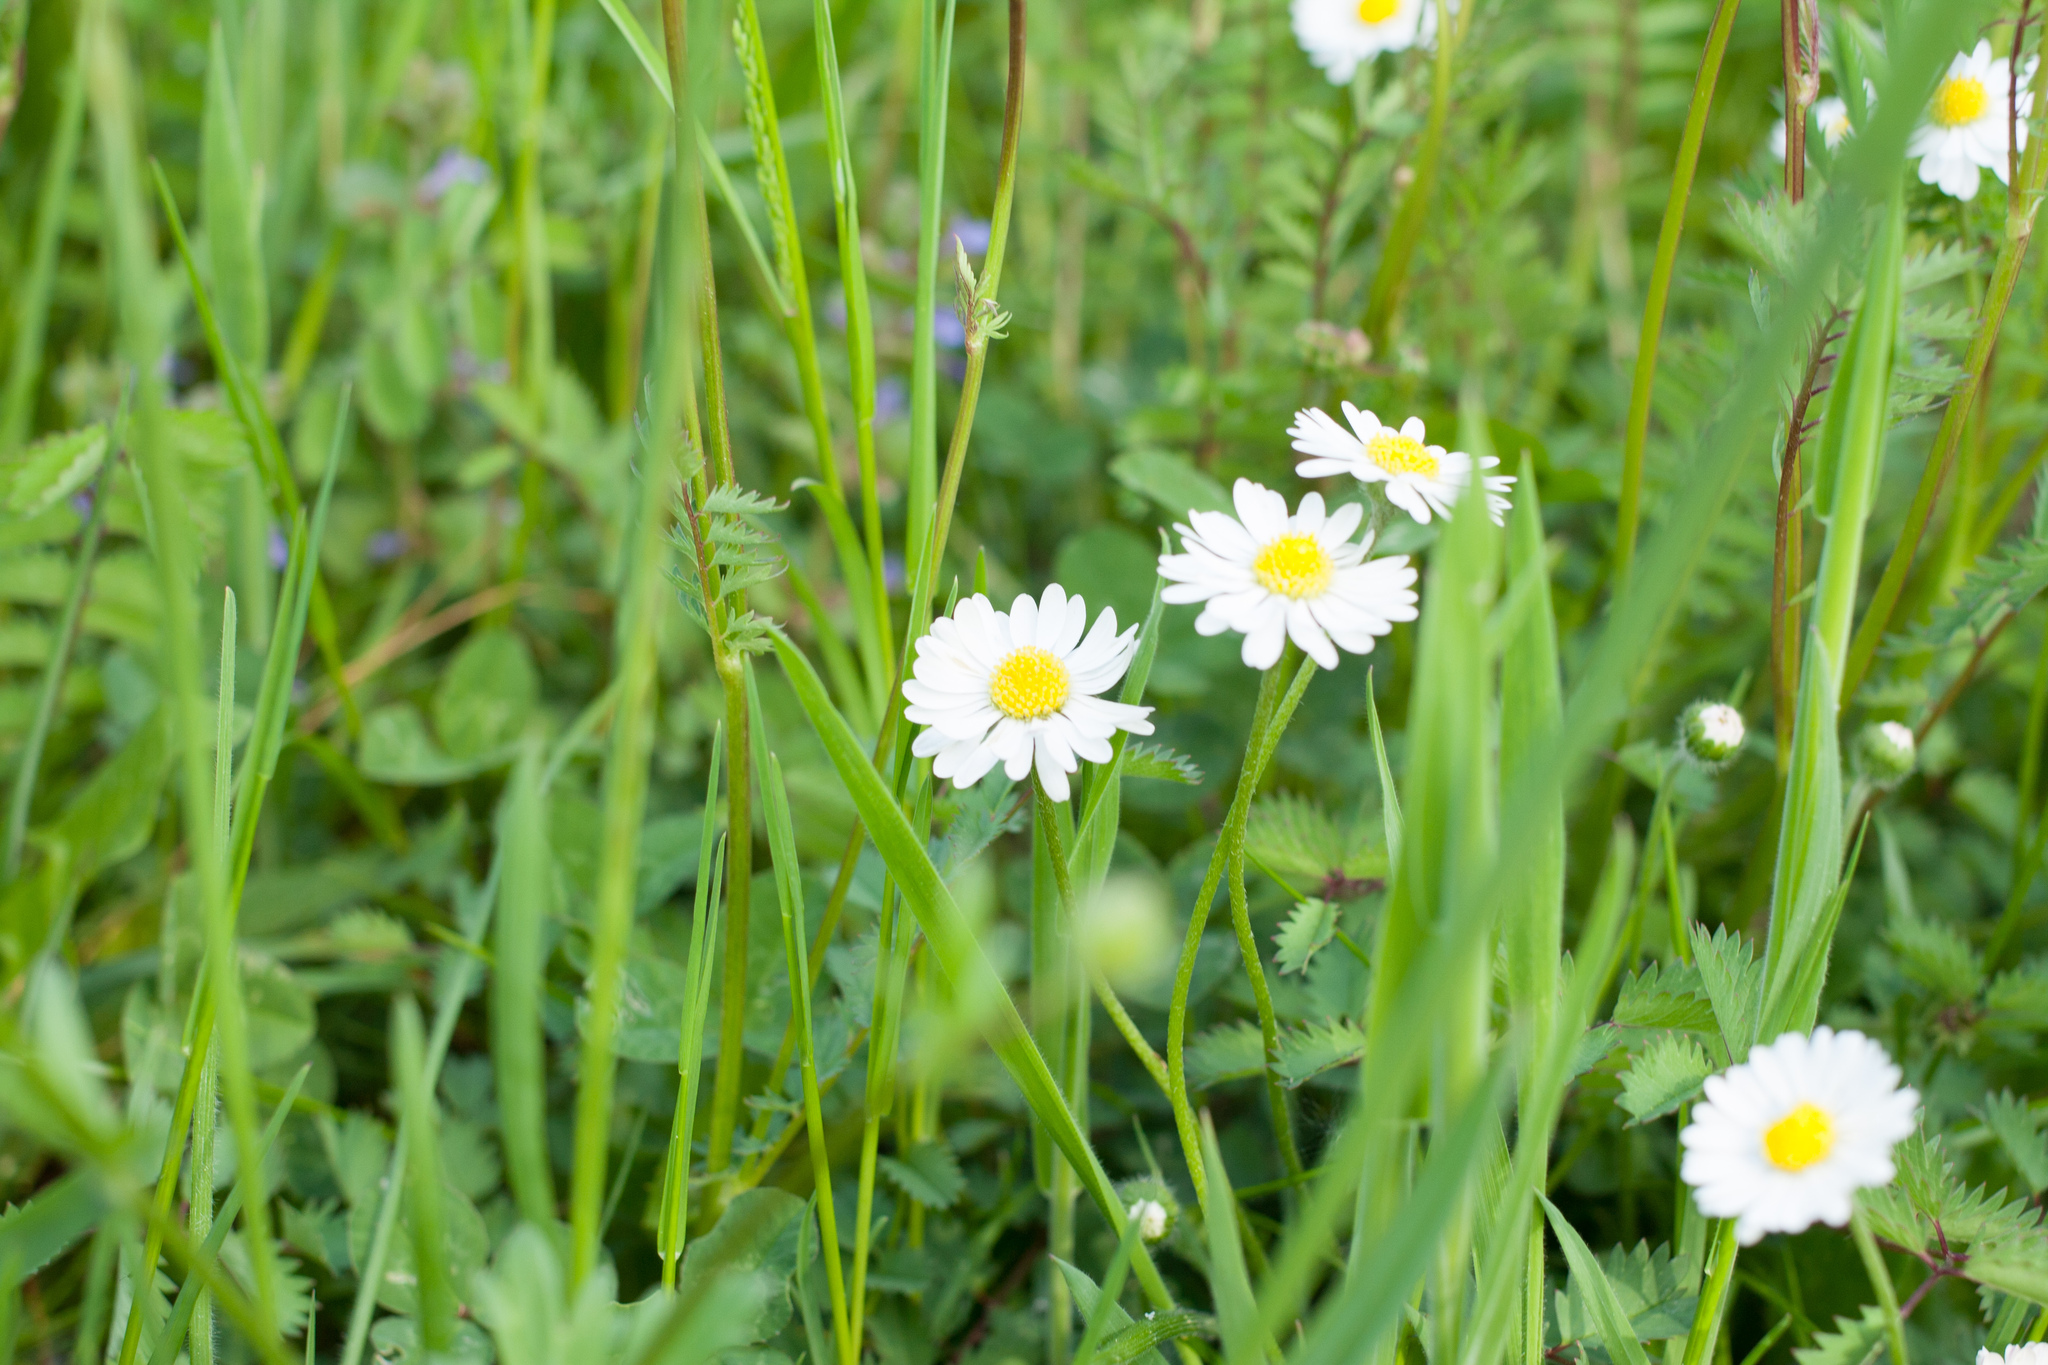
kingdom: Plantae
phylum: Tracheophyta
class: Magnoliopsida
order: Asterales
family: Asteraceae
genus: Bellis
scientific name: Bellis perennis
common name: Lawndaisy
